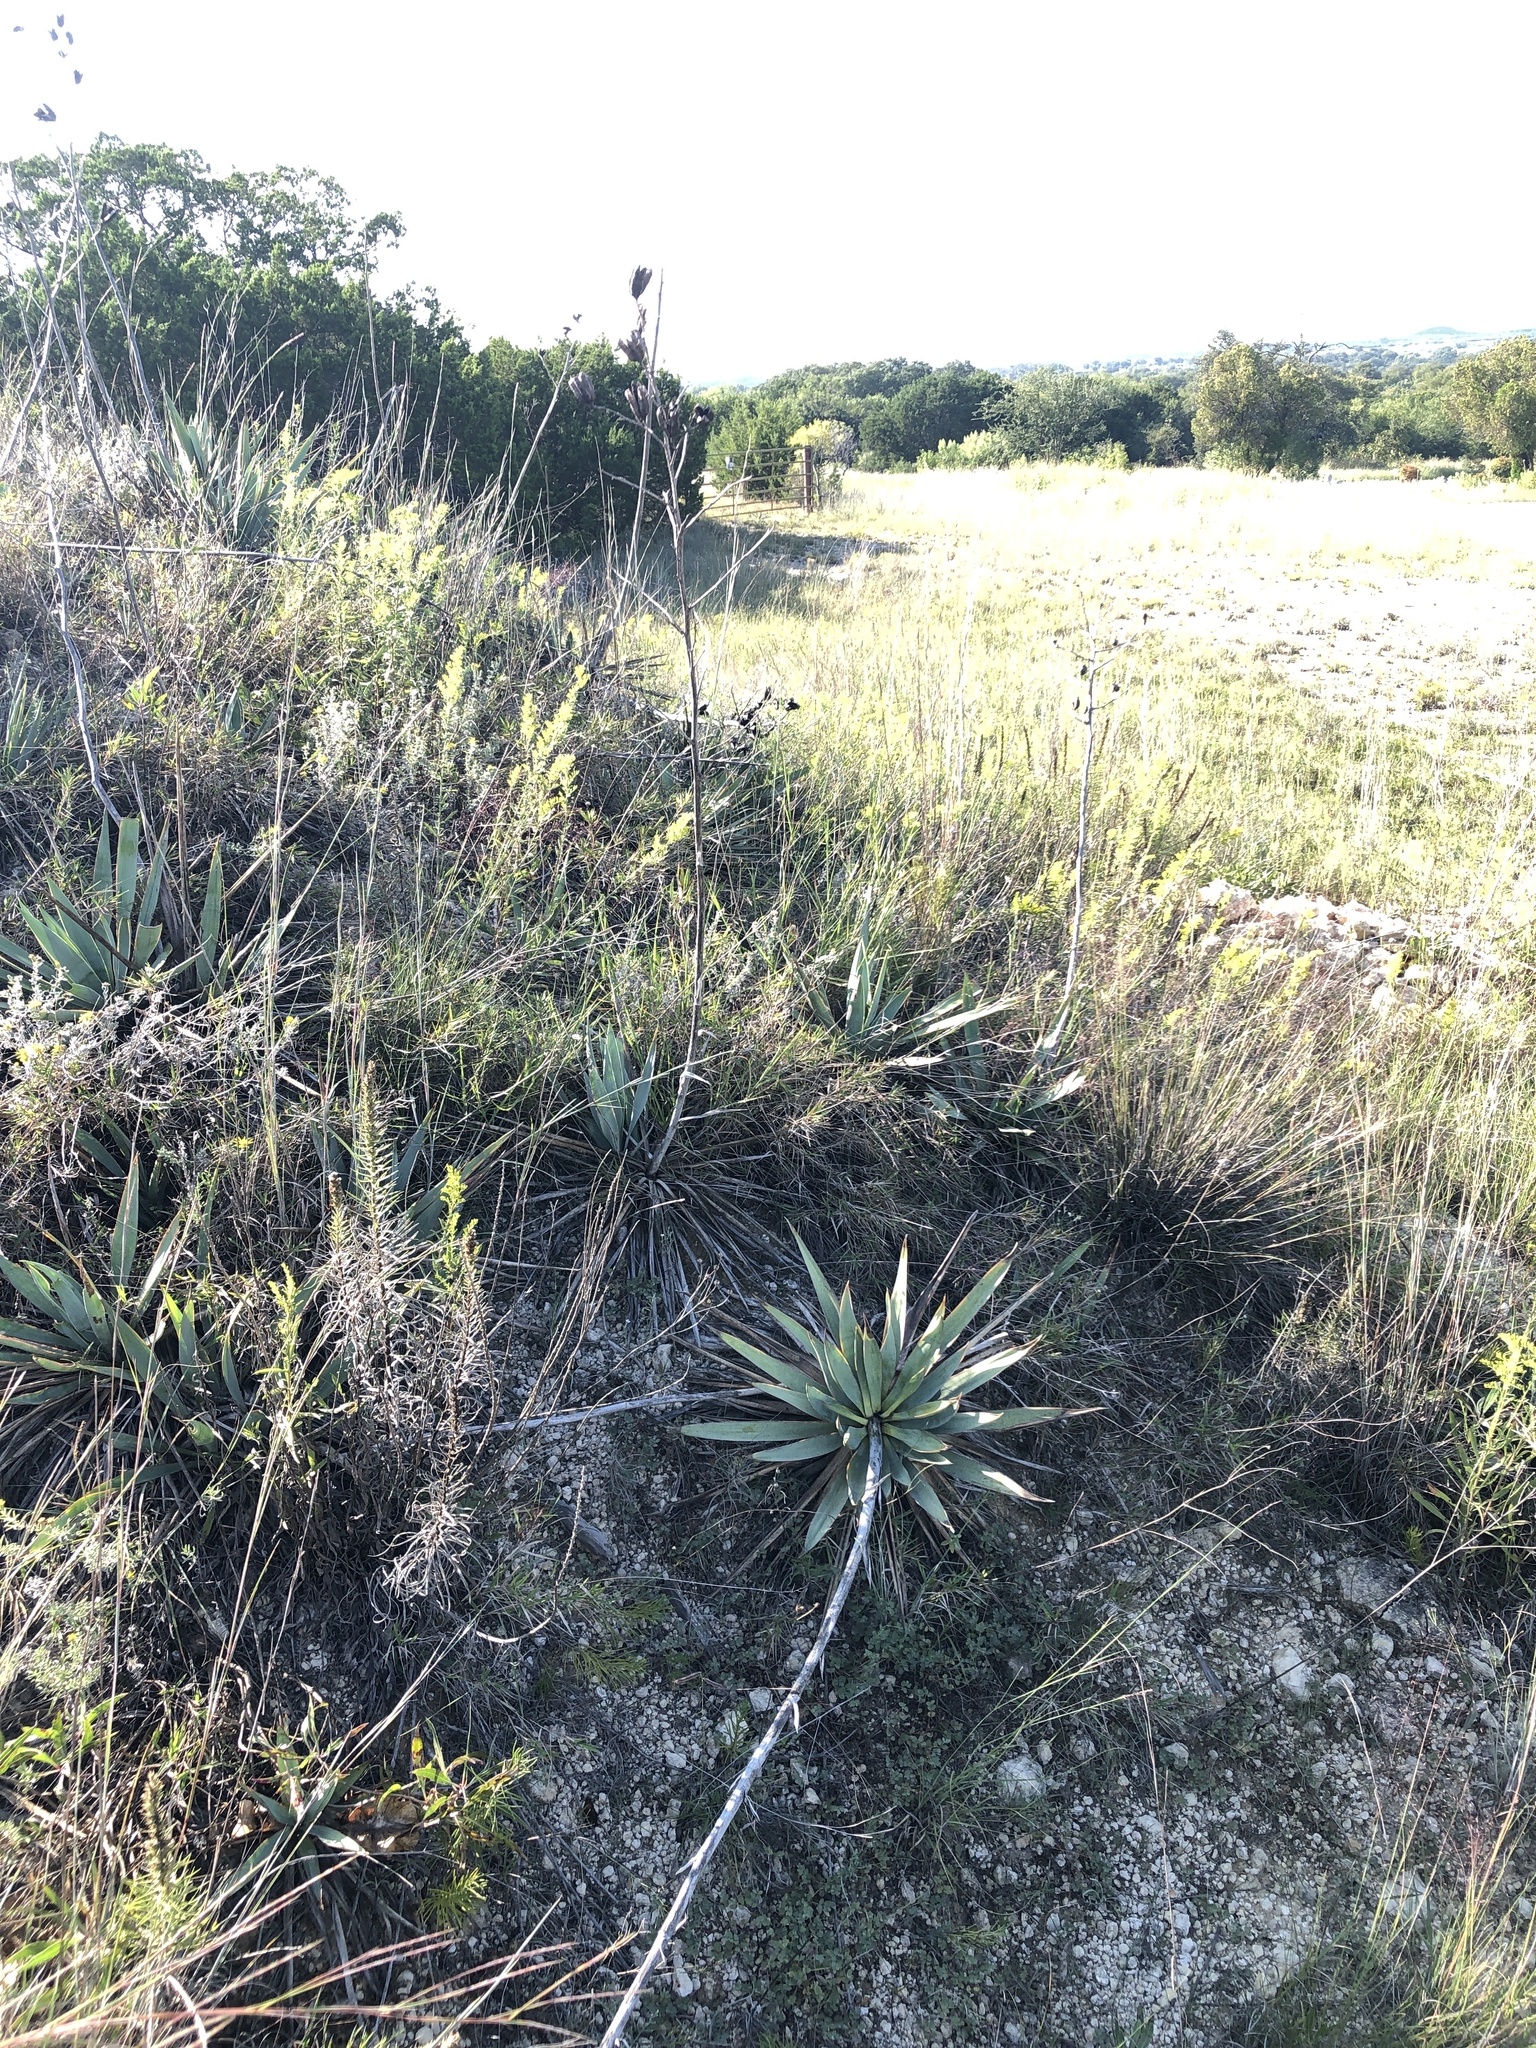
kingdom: Plantae
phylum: Tracheophyta
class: Liliopsida
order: Asparagales
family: Asparagaceae
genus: Yucca
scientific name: Yucca pallida
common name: Pale leaf yucca
